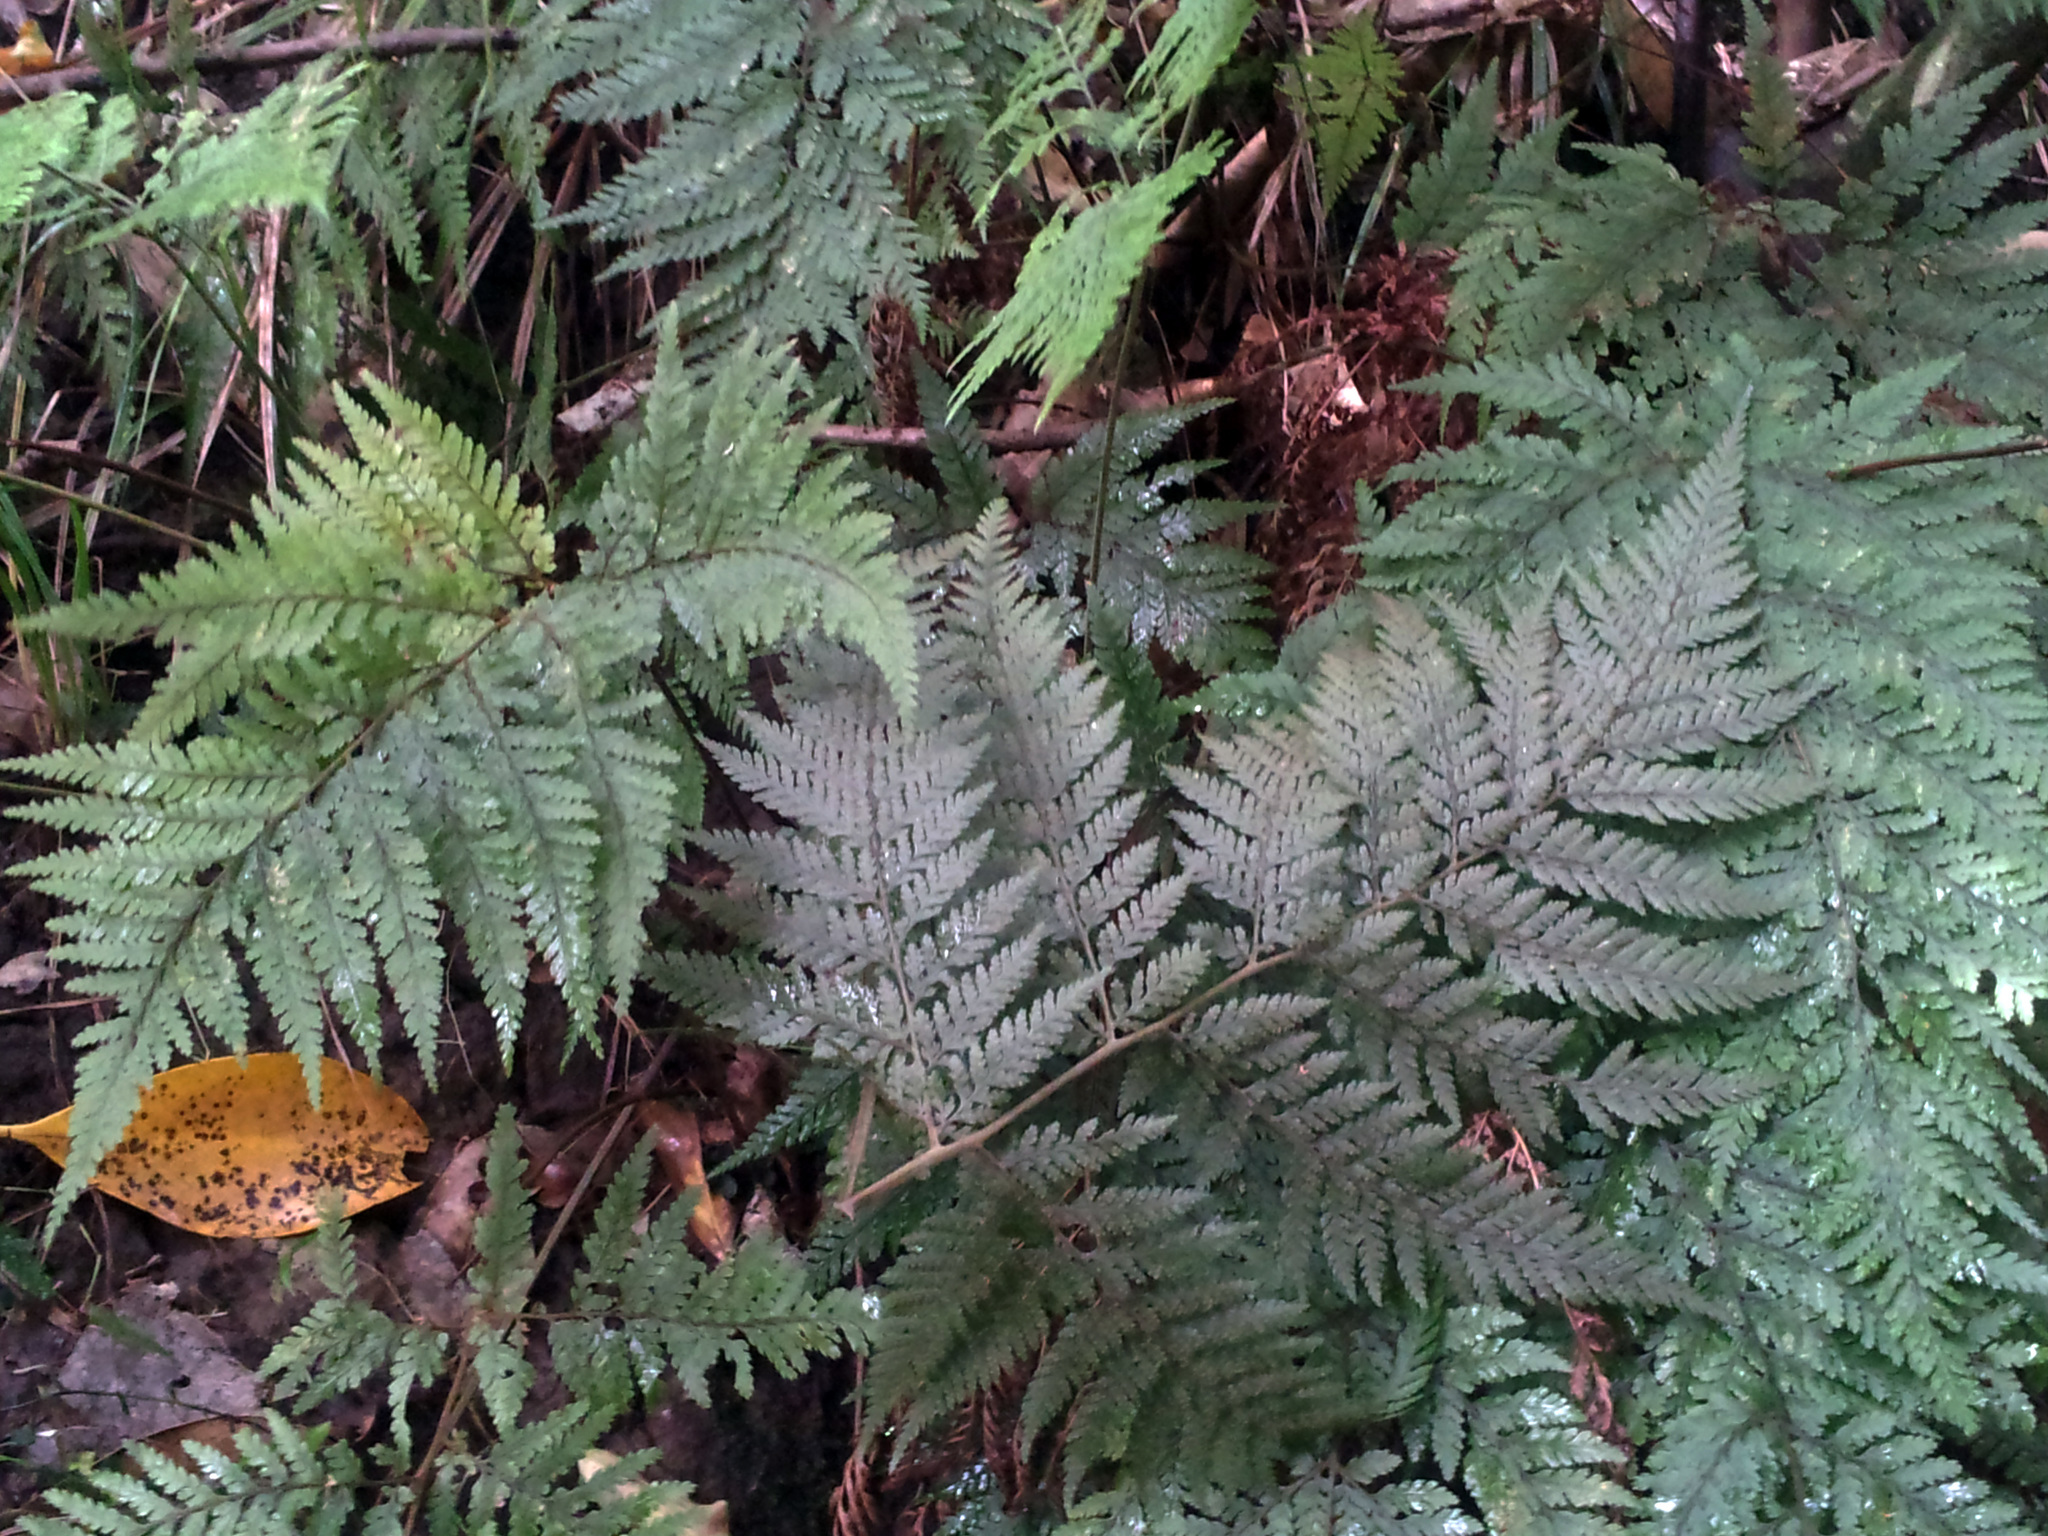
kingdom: Plantae
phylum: Tracheophyta
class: Polypodiopsida
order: Polypodiales
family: Dryopteridaceae
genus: Parapolystichum
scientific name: Parapolystichum microsorum
